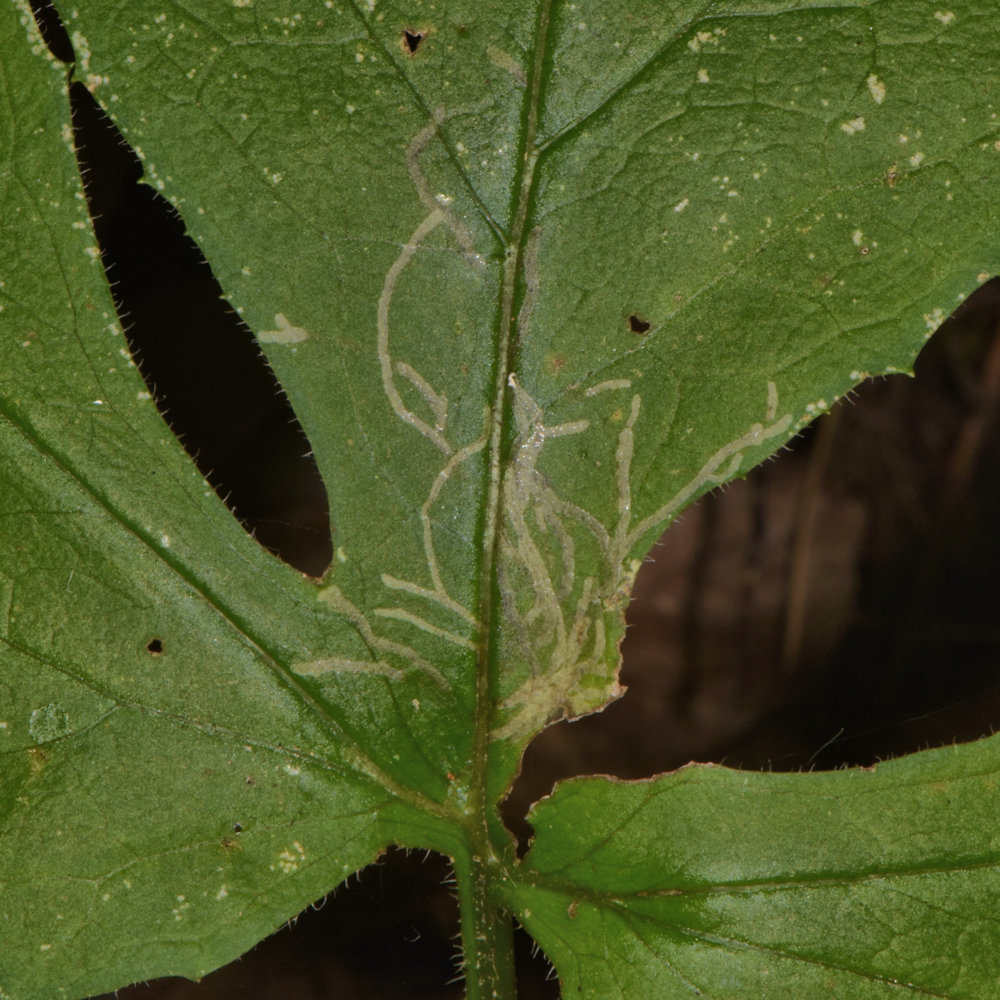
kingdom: Animalia
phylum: Arthropoda
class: Insecta
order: Diptera
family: Agromyzidae
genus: Ophiomyia
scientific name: Ophiomyia congregata
